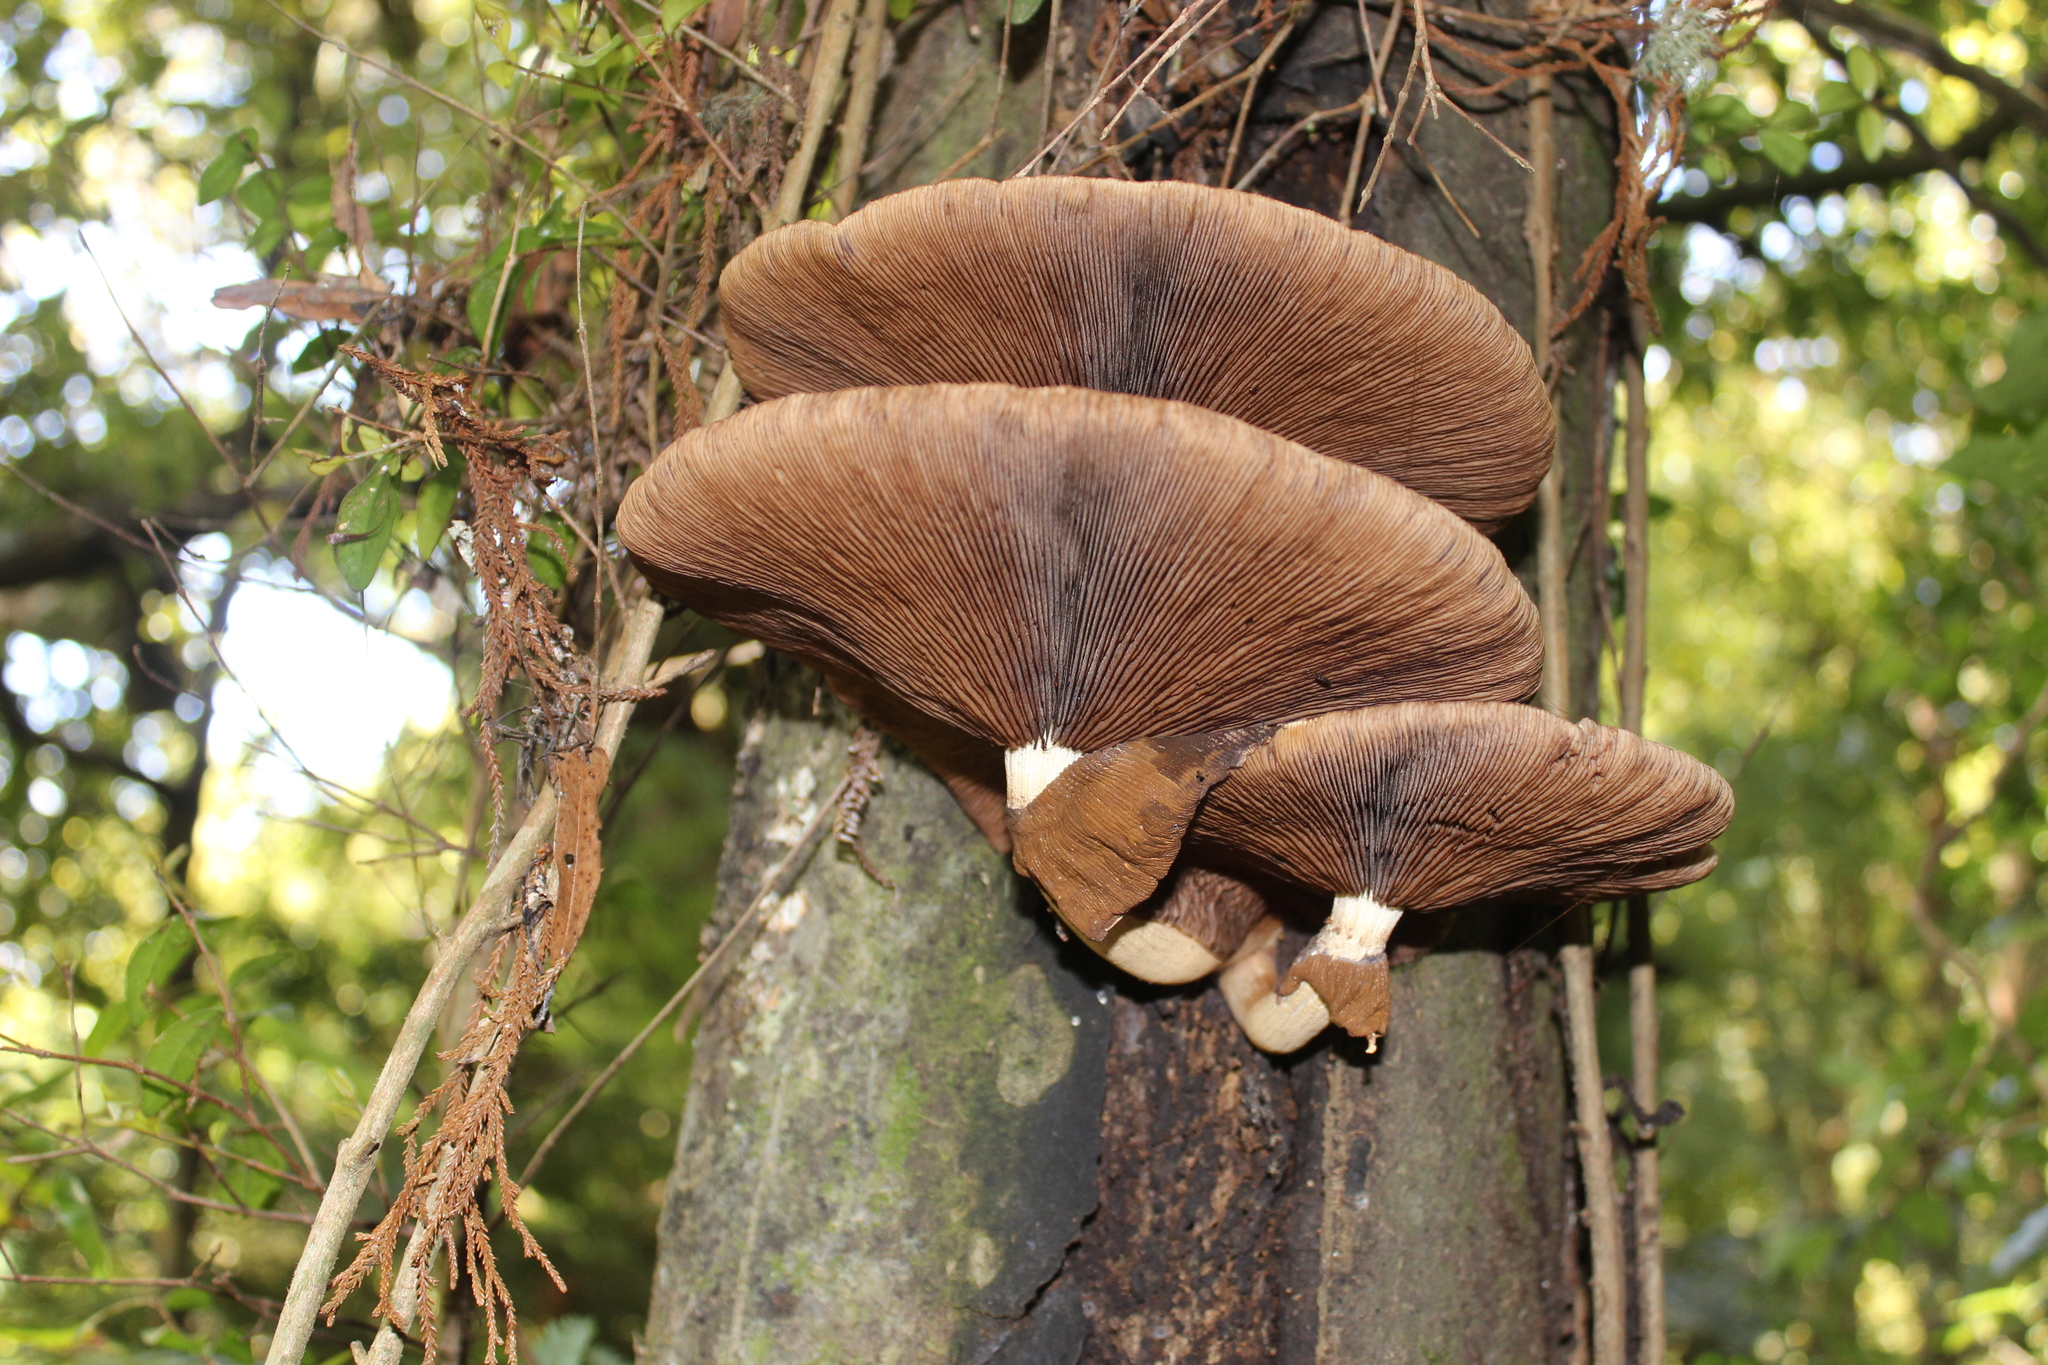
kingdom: Fungi
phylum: Basidiomycota
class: Agaricomycetes
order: Agaricales
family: Tubariaceae
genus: Cyclocybe
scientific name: Cyclocybe parasitica
